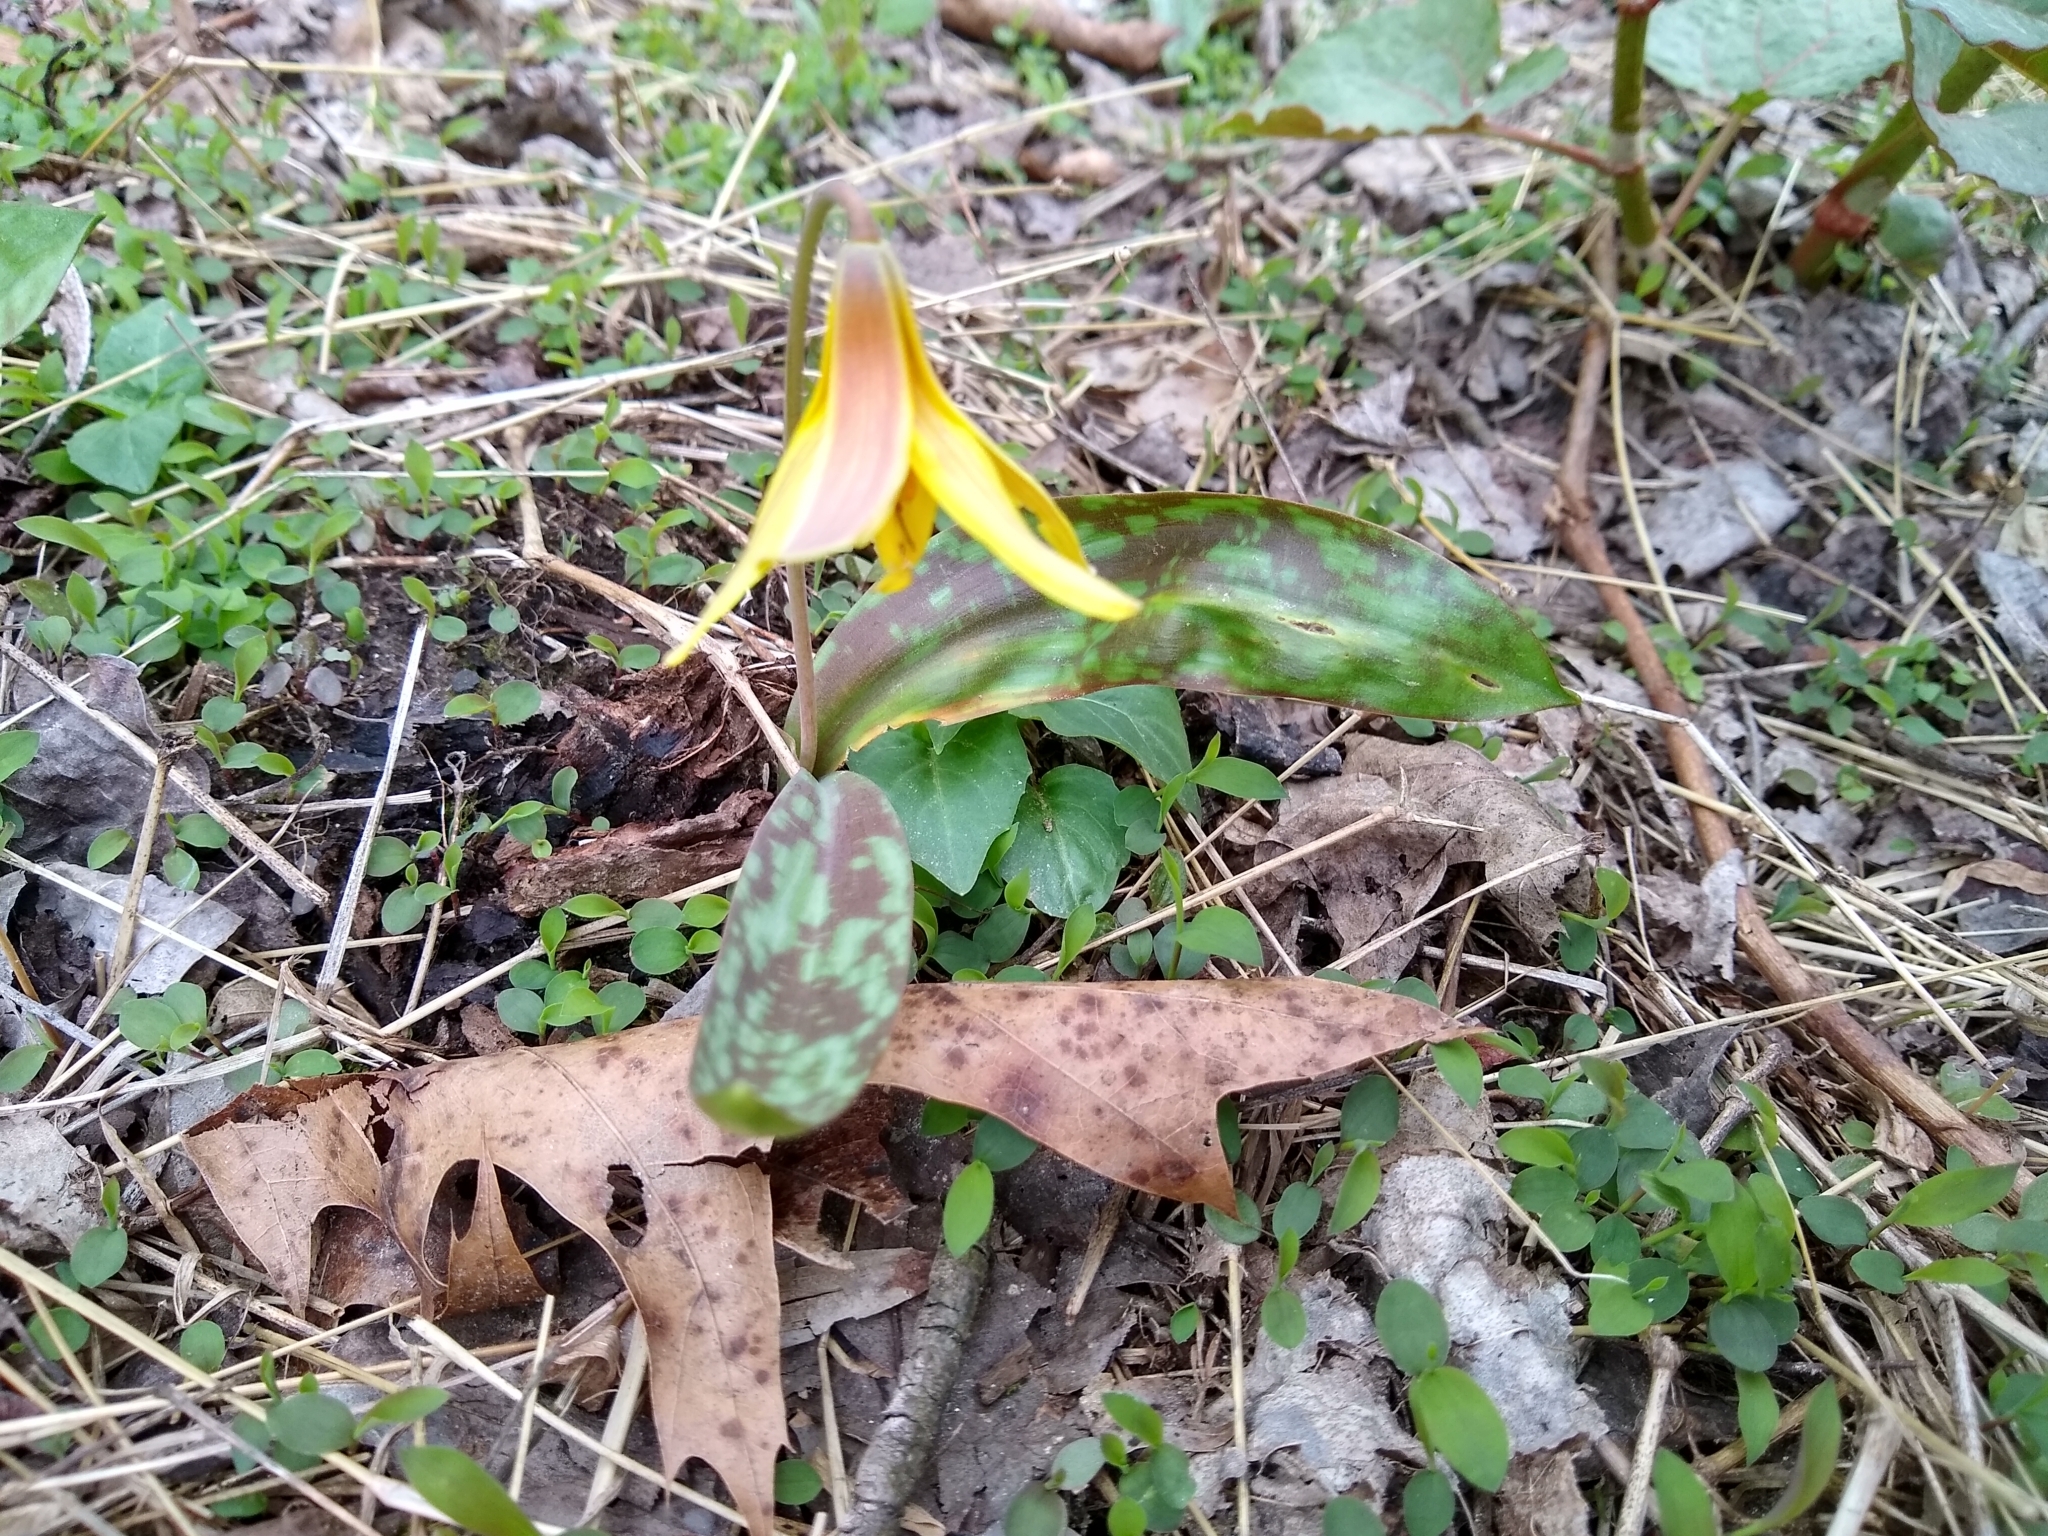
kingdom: Plantae
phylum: Tracheophyta
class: Liliopsida
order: Liliales
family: Liliaceae
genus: Erythronium
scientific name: Erythronium americanum
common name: Yellow adder's-tongue
